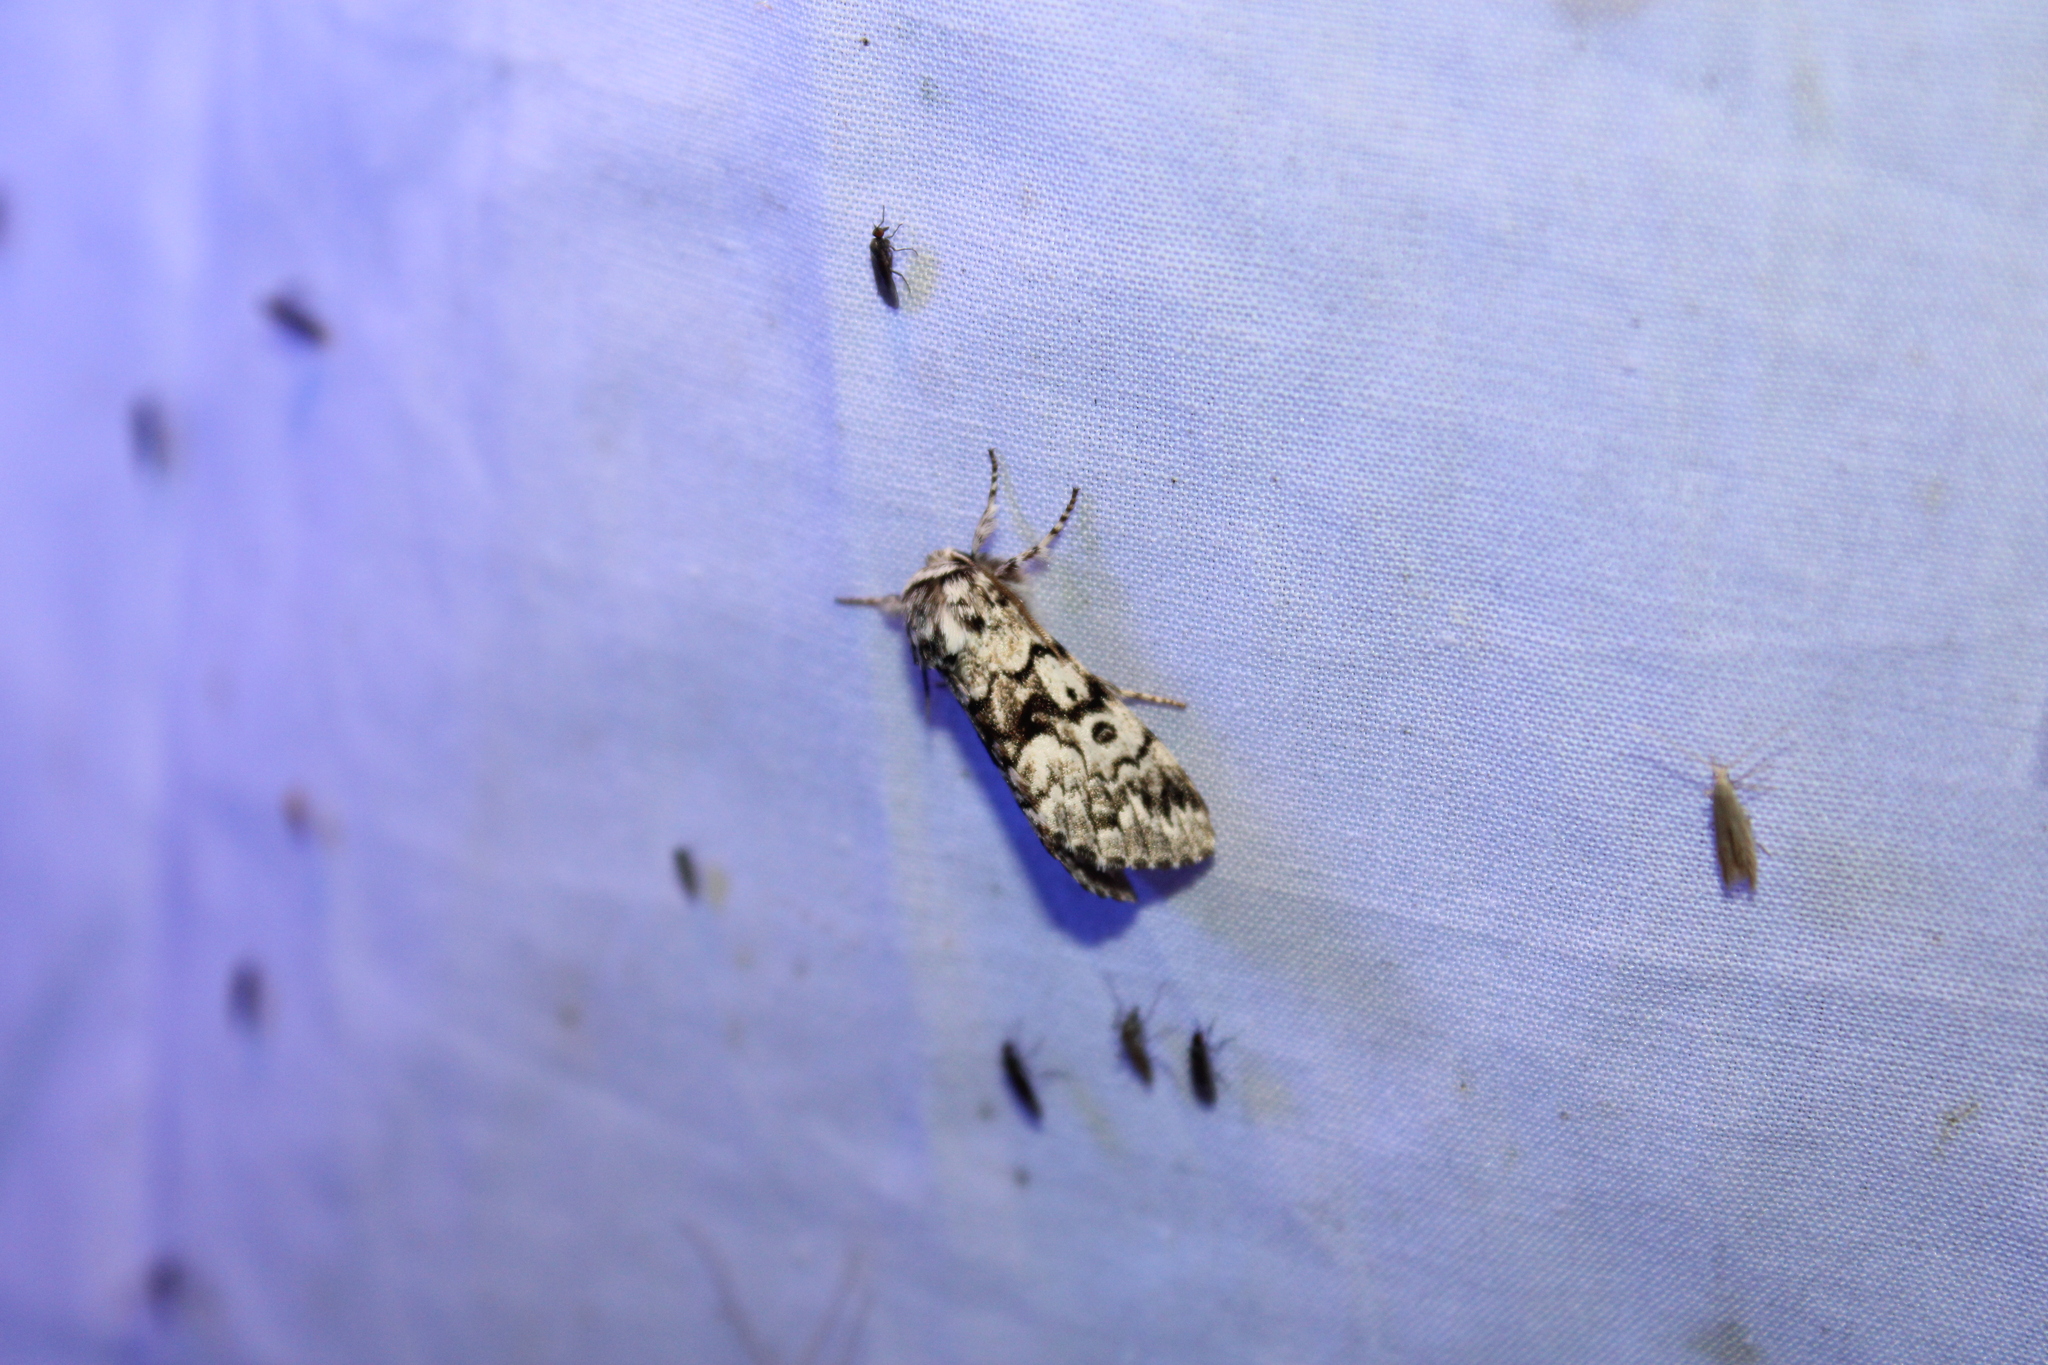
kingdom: Animalia
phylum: Arthropoda
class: Insecta
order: Lepidoptera
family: Noctuidae
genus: Panthea
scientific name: Panthea acronyctoides
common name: Black zigzag moth
